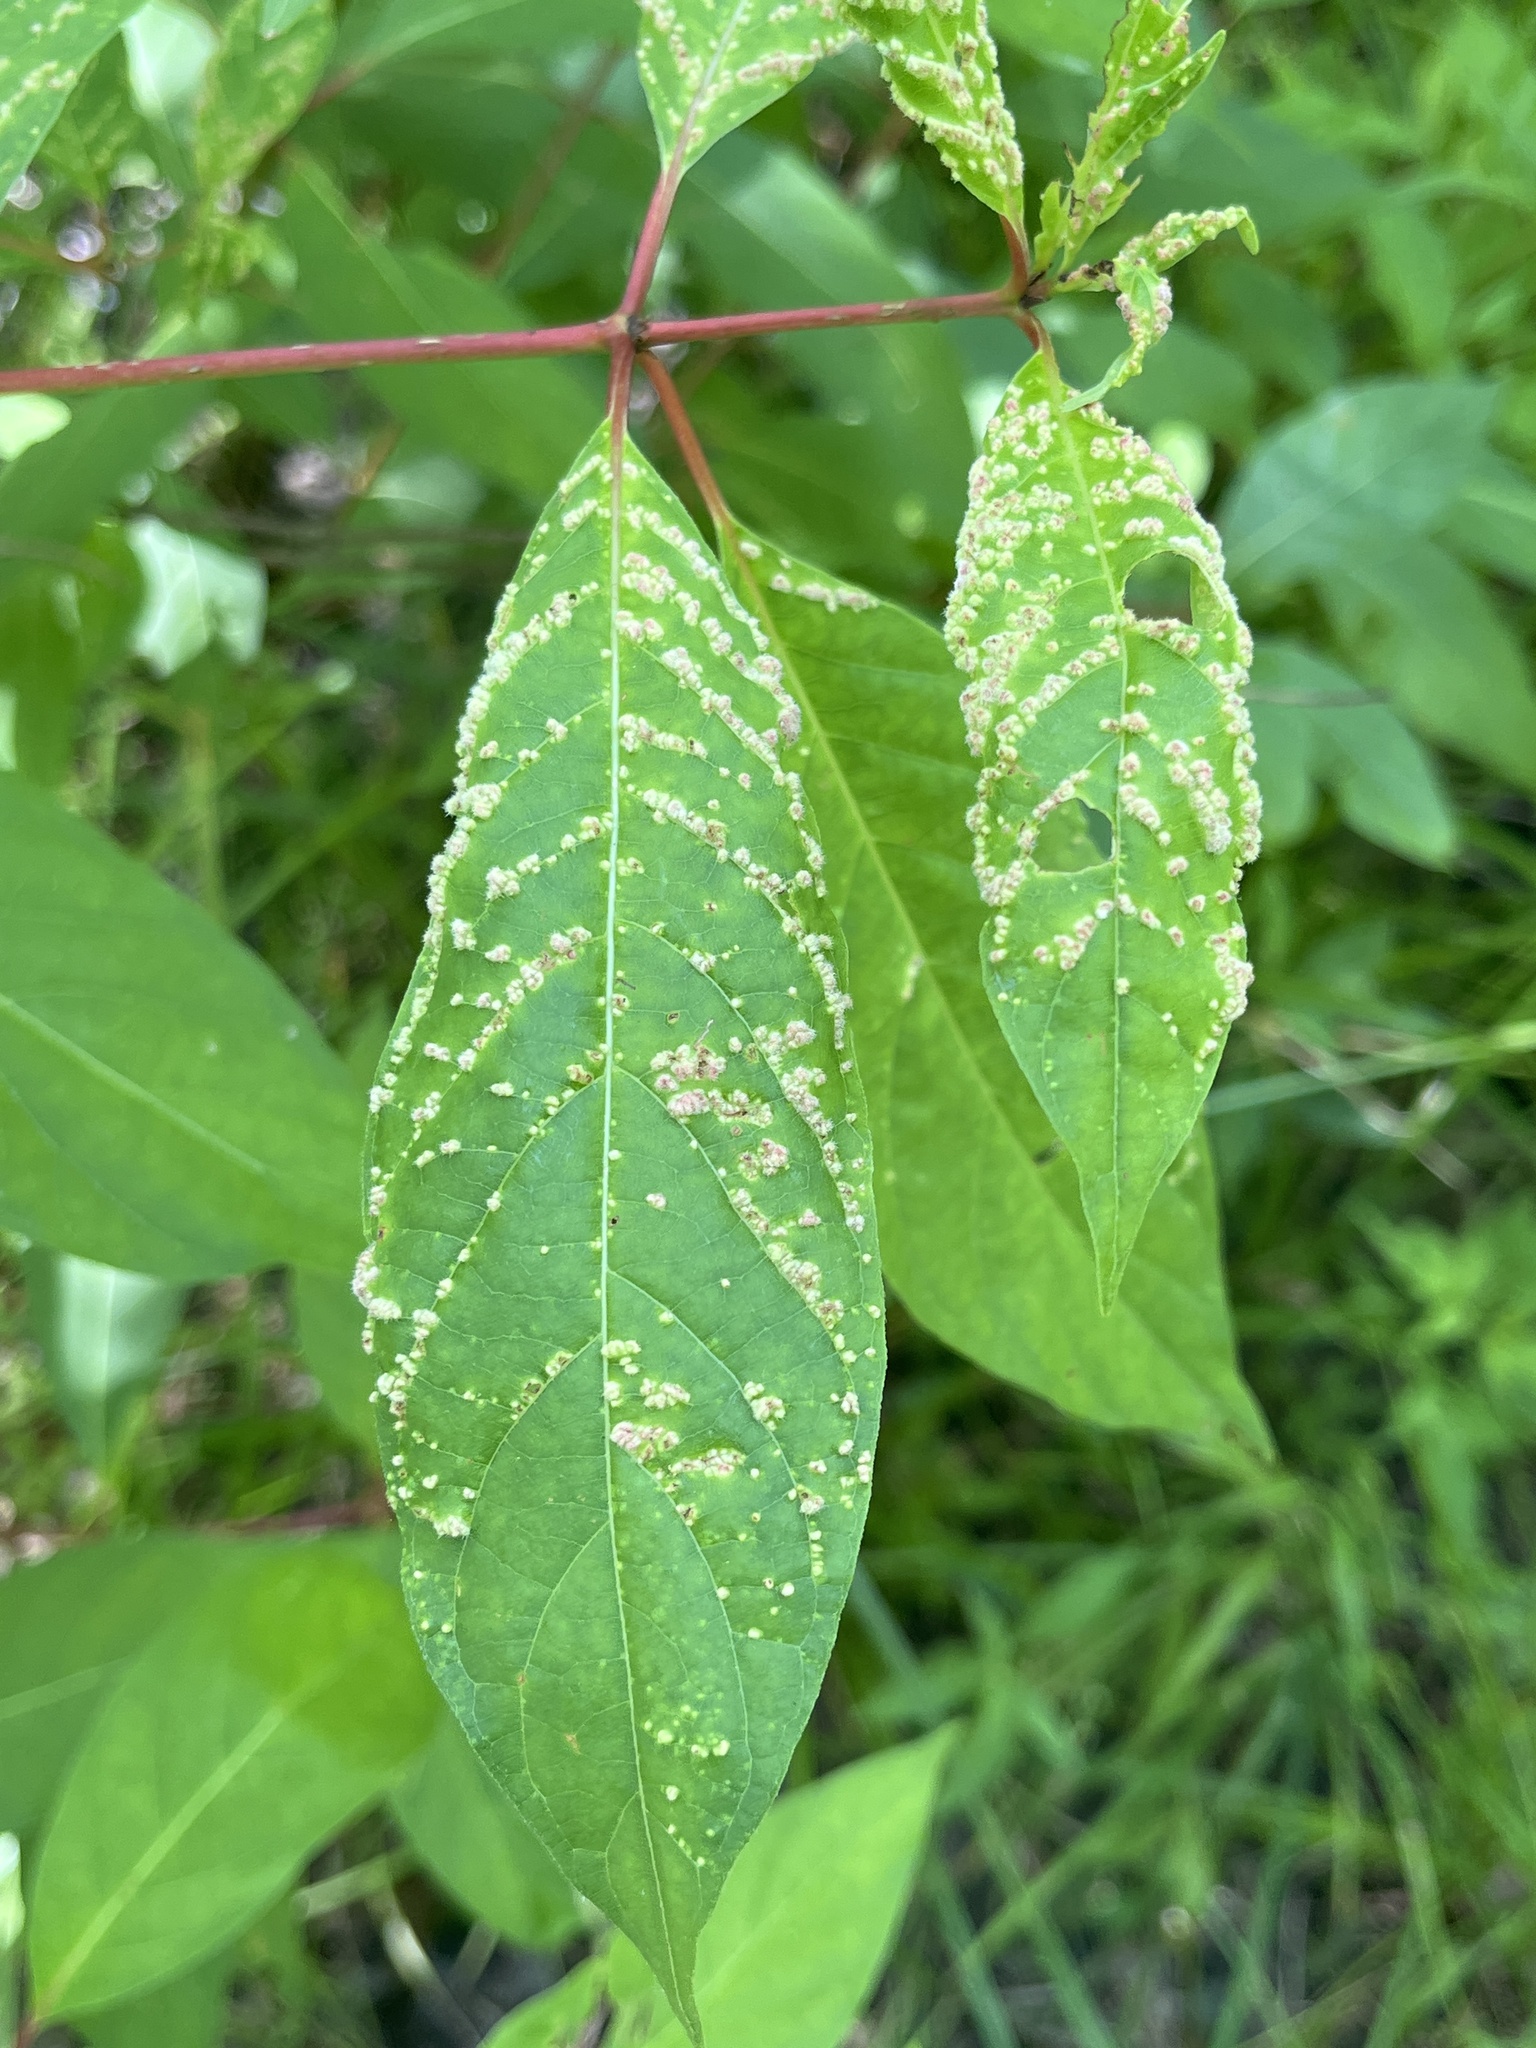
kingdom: Animalia
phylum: Arthropoda
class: Arachnida
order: Trombidiformes
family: Eriophyidae
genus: Aceria
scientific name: Aceria
